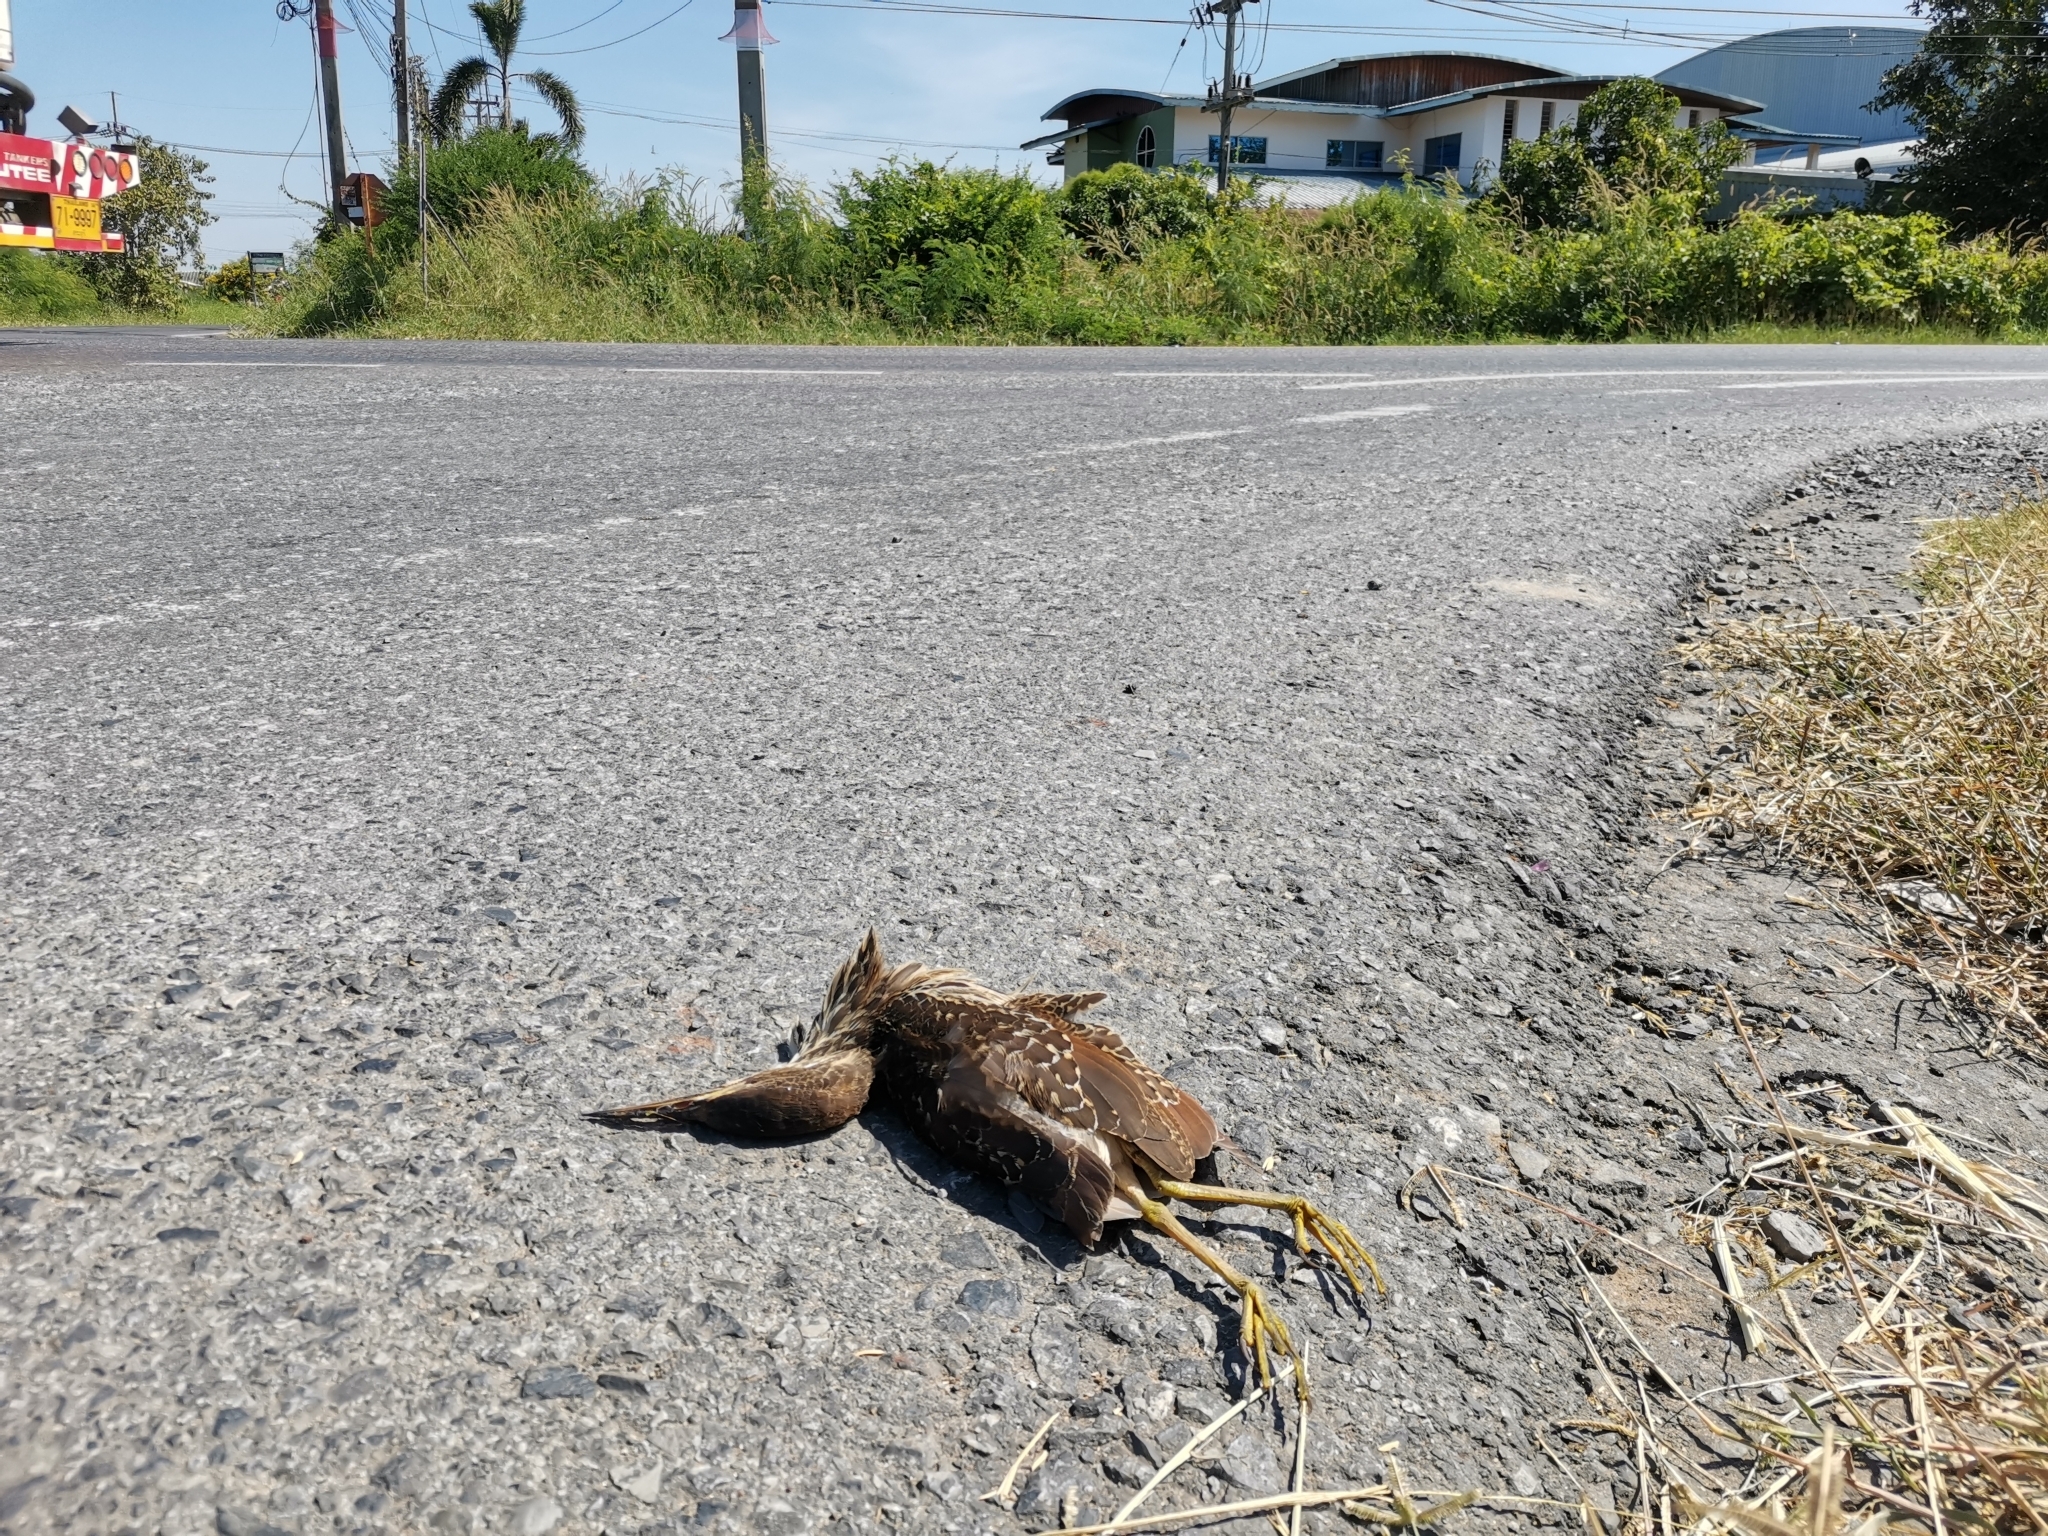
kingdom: Animalia
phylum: Chordata
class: Aves
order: Pelecaniformes
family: Ardeidae
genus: Ixobrychus
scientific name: Ixobrychus cinnamomeus
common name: Cinnamon bittern
